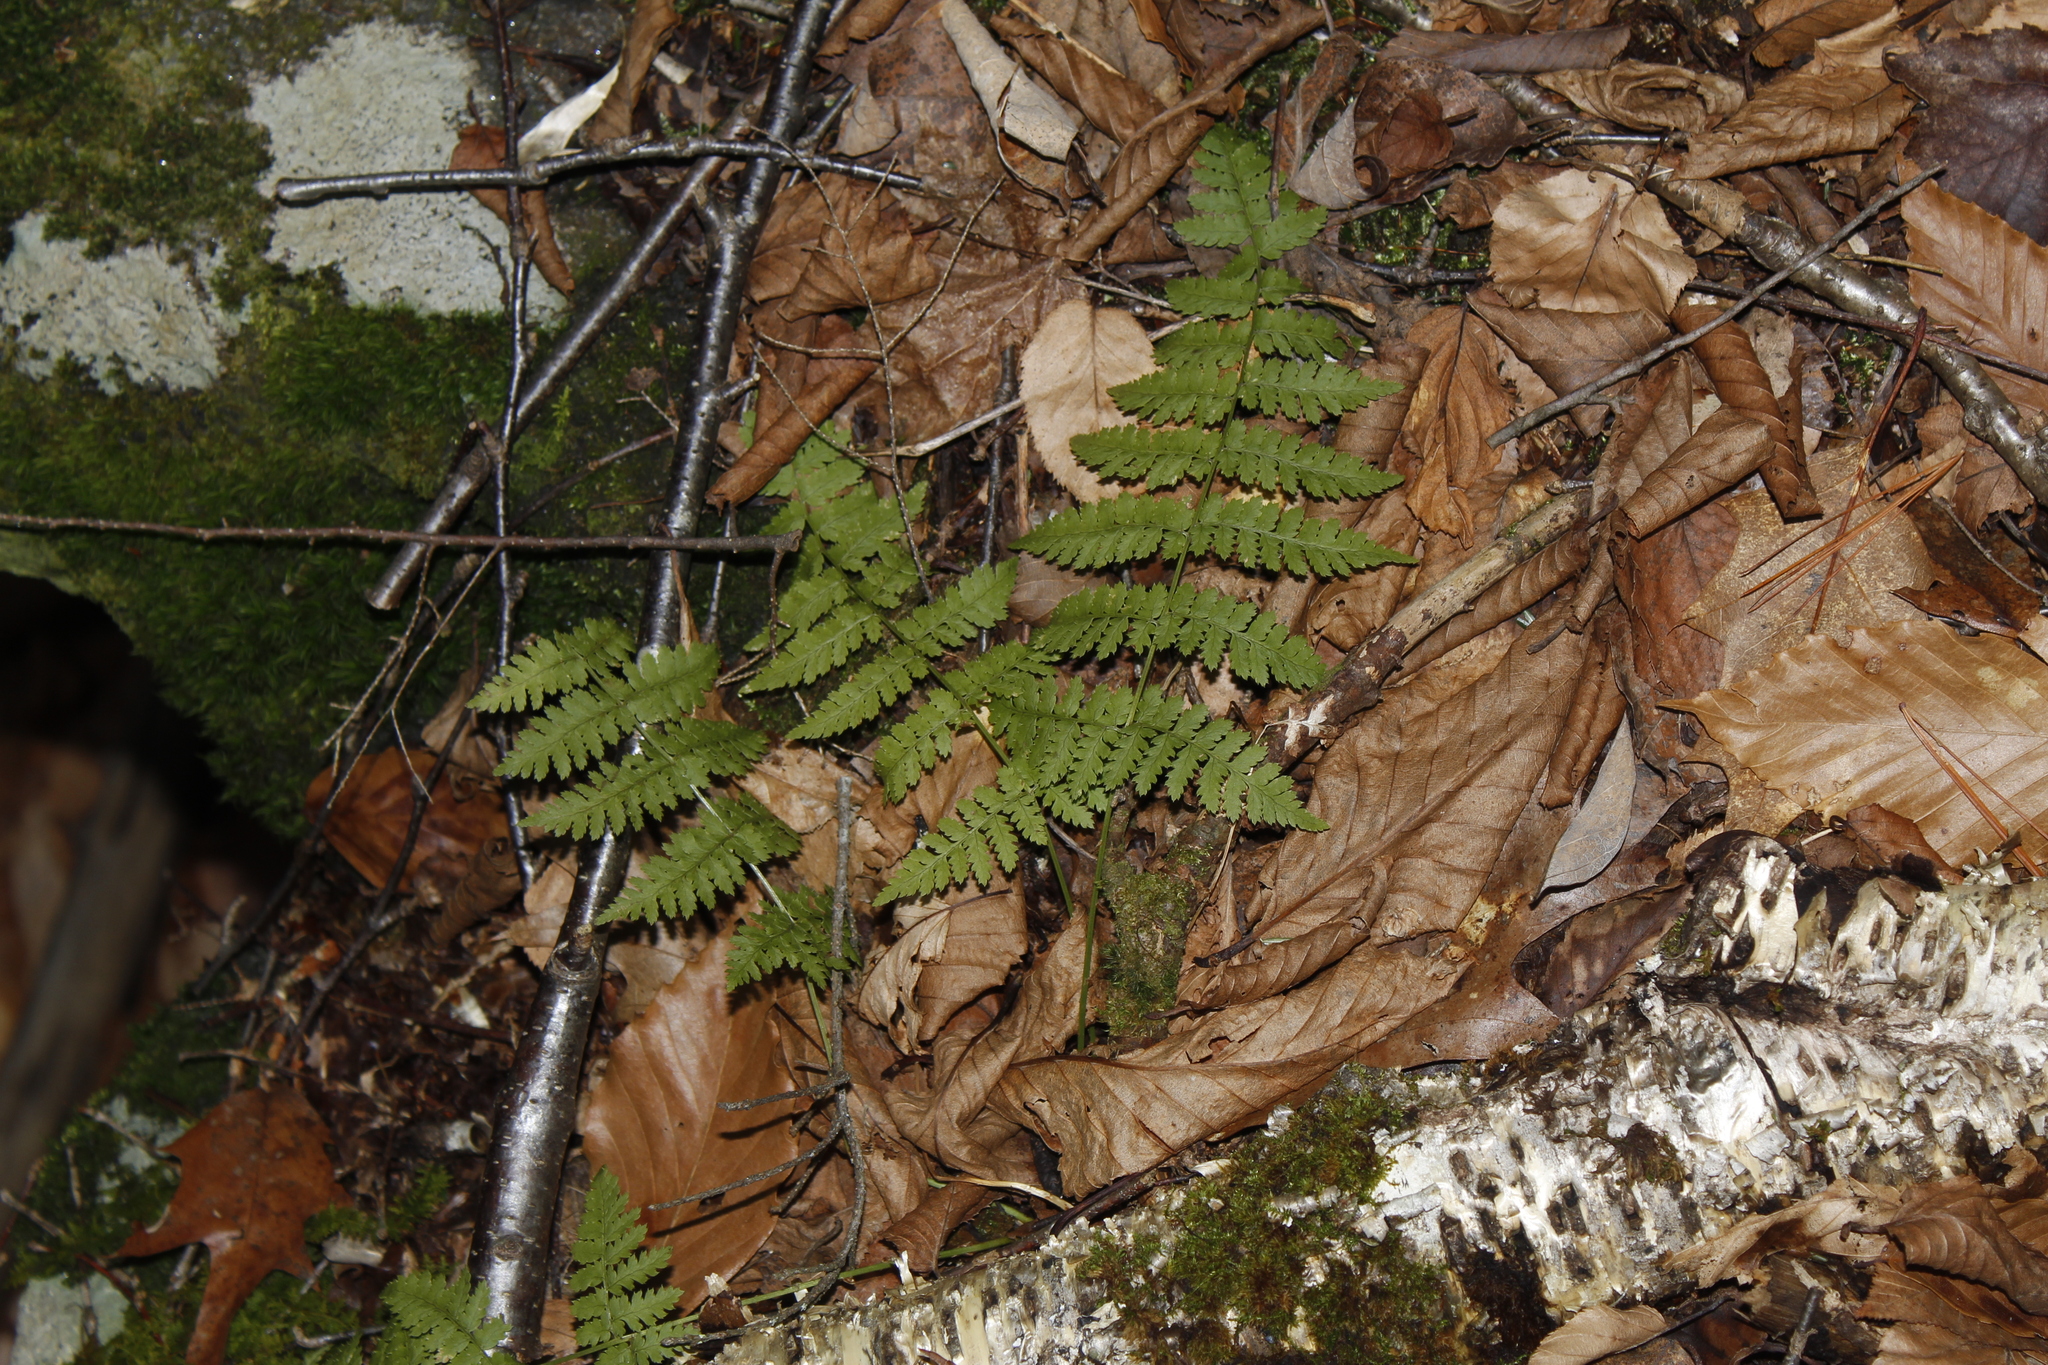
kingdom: Plantae
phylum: Tracheophyta
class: Polypodiopsida
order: Polypodiales
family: Dryopteridaceae
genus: Dryopteris
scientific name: Dryopteris intermedia
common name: Evergreen wood fern
